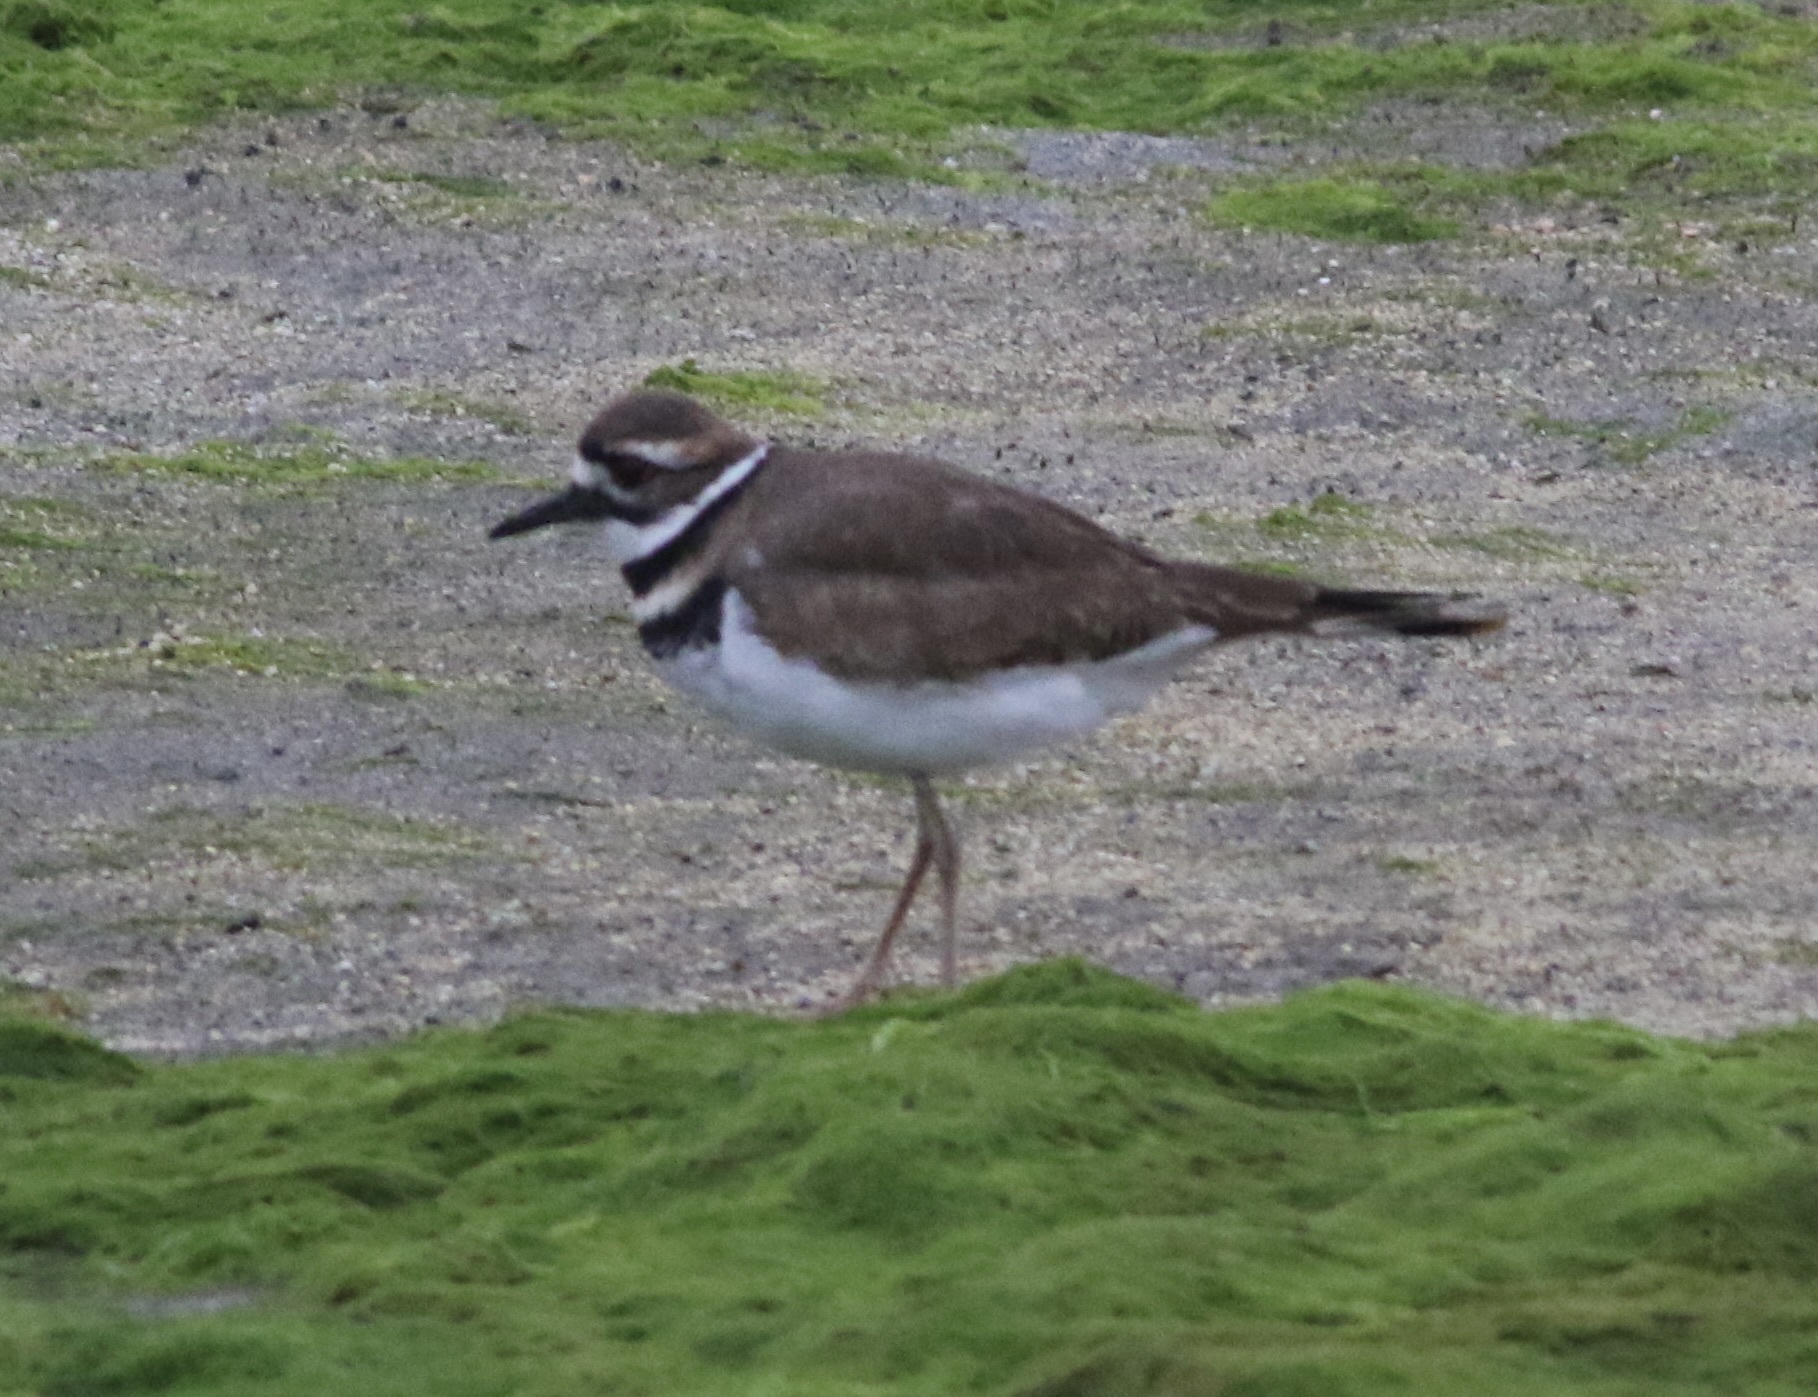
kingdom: Animalia
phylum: Chordata
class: Aves
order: Charadriiformes
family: Charadriidae
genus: Charadrius
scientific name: Charadrius vociferus
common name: Killdeer
